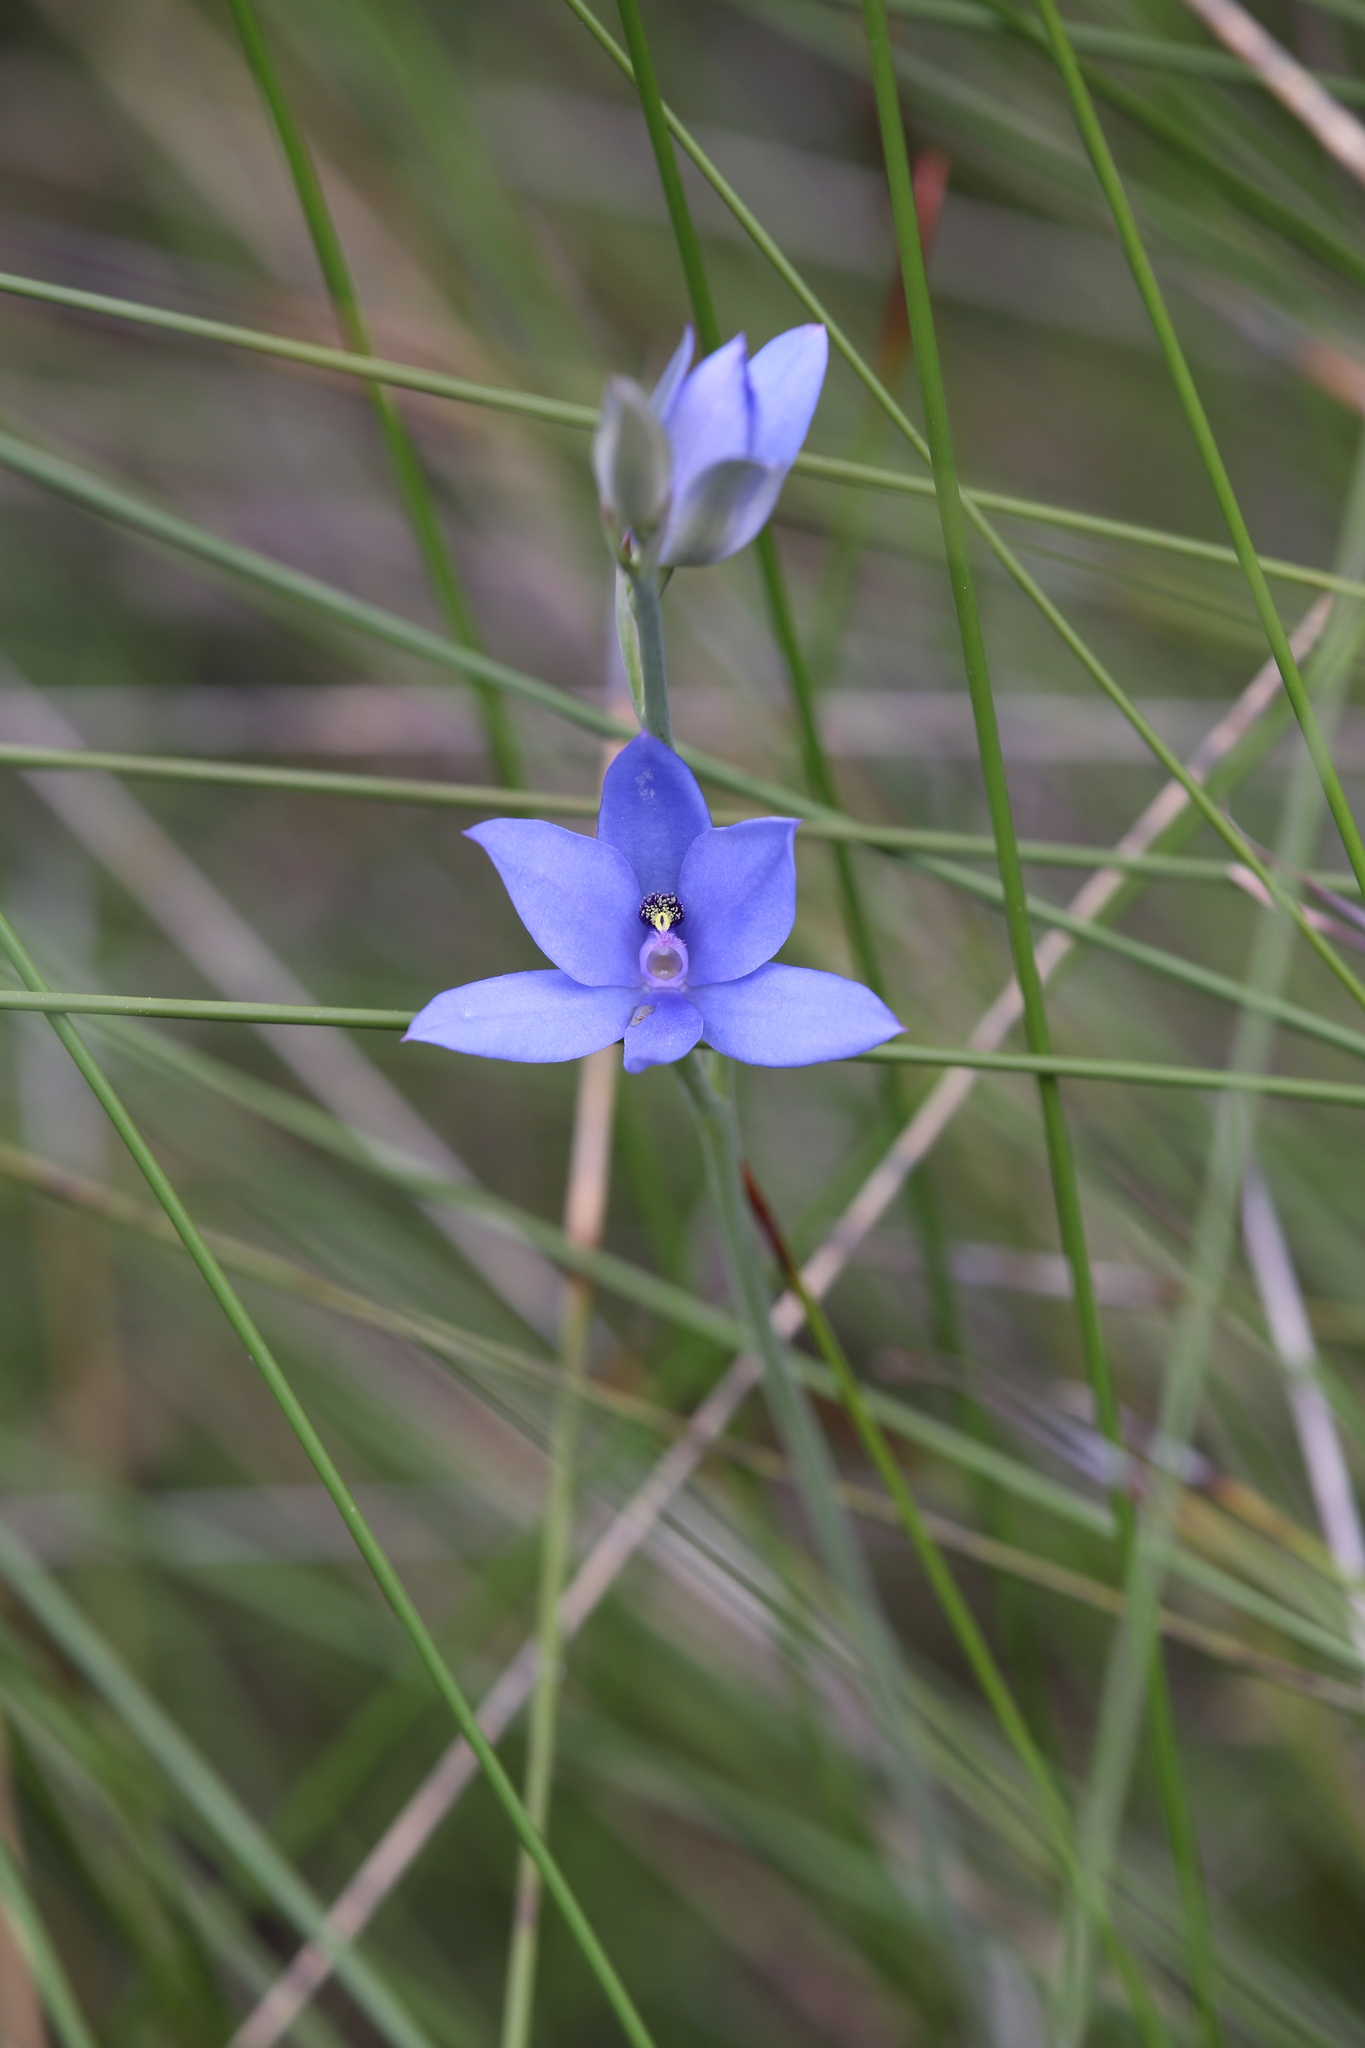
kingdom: Plantae
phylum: Tracheophyta
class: Liliopsida
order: Asparagales
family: Orchidaceae
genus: Thelymitra
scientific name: Thelymitra crinita
